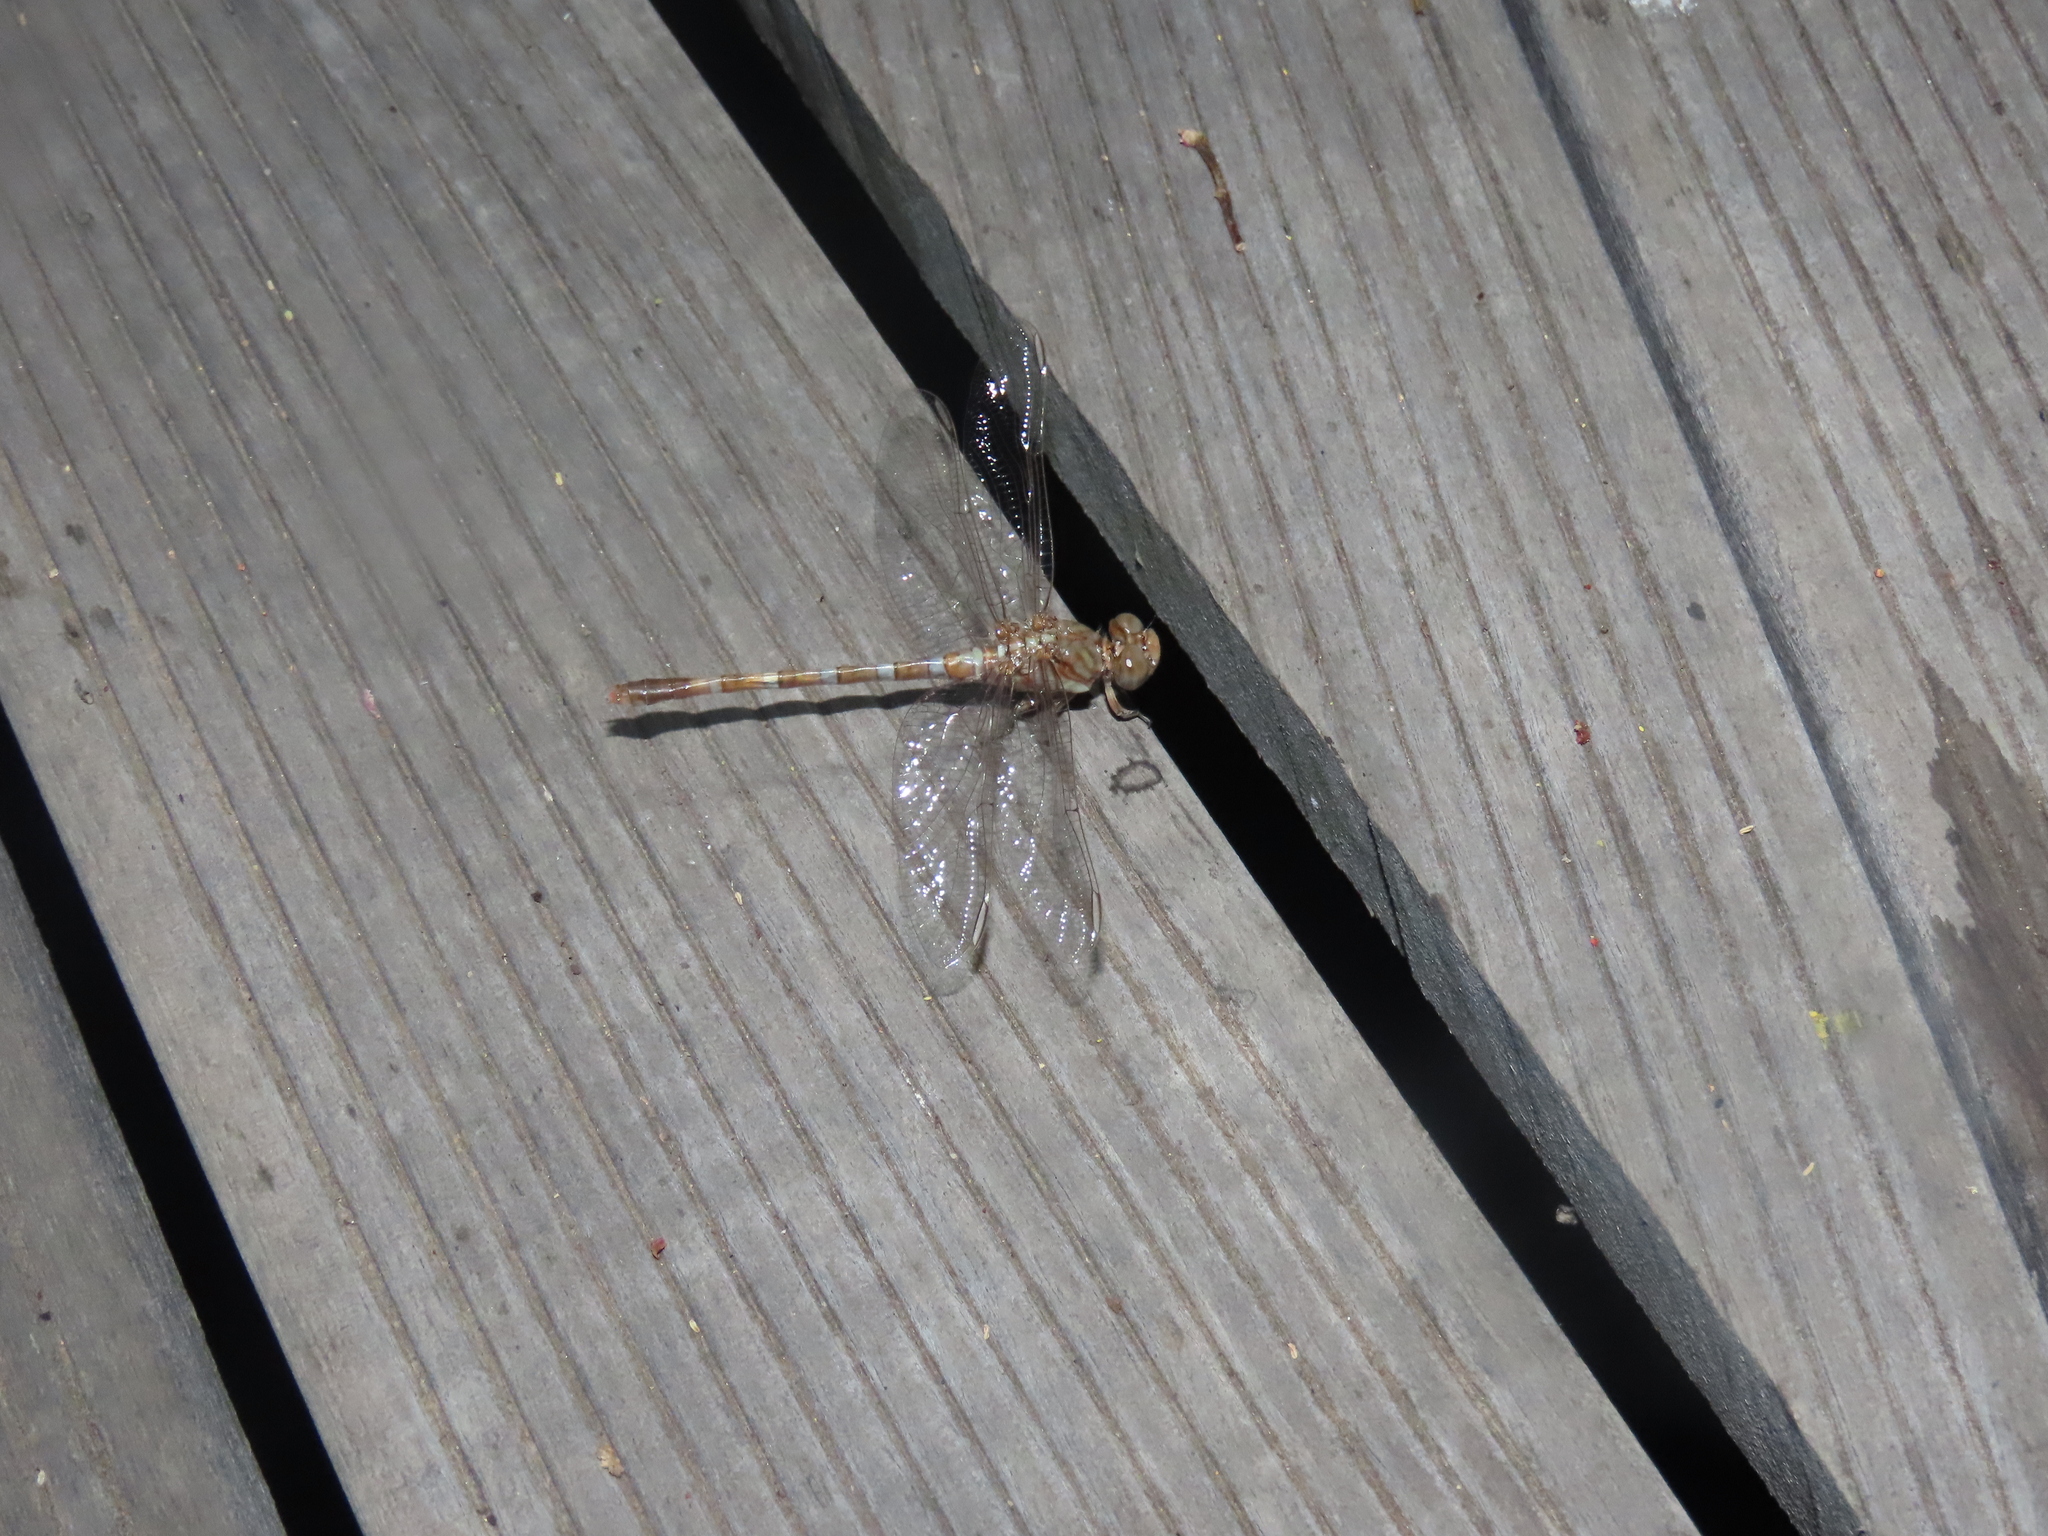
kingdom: Animalia
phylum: Arthropoda
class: Insecta
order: Odonata
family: Gomphidae
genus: Crenigomphus
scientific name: Crenigomphus hartmanni
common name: Clubbed talontail
